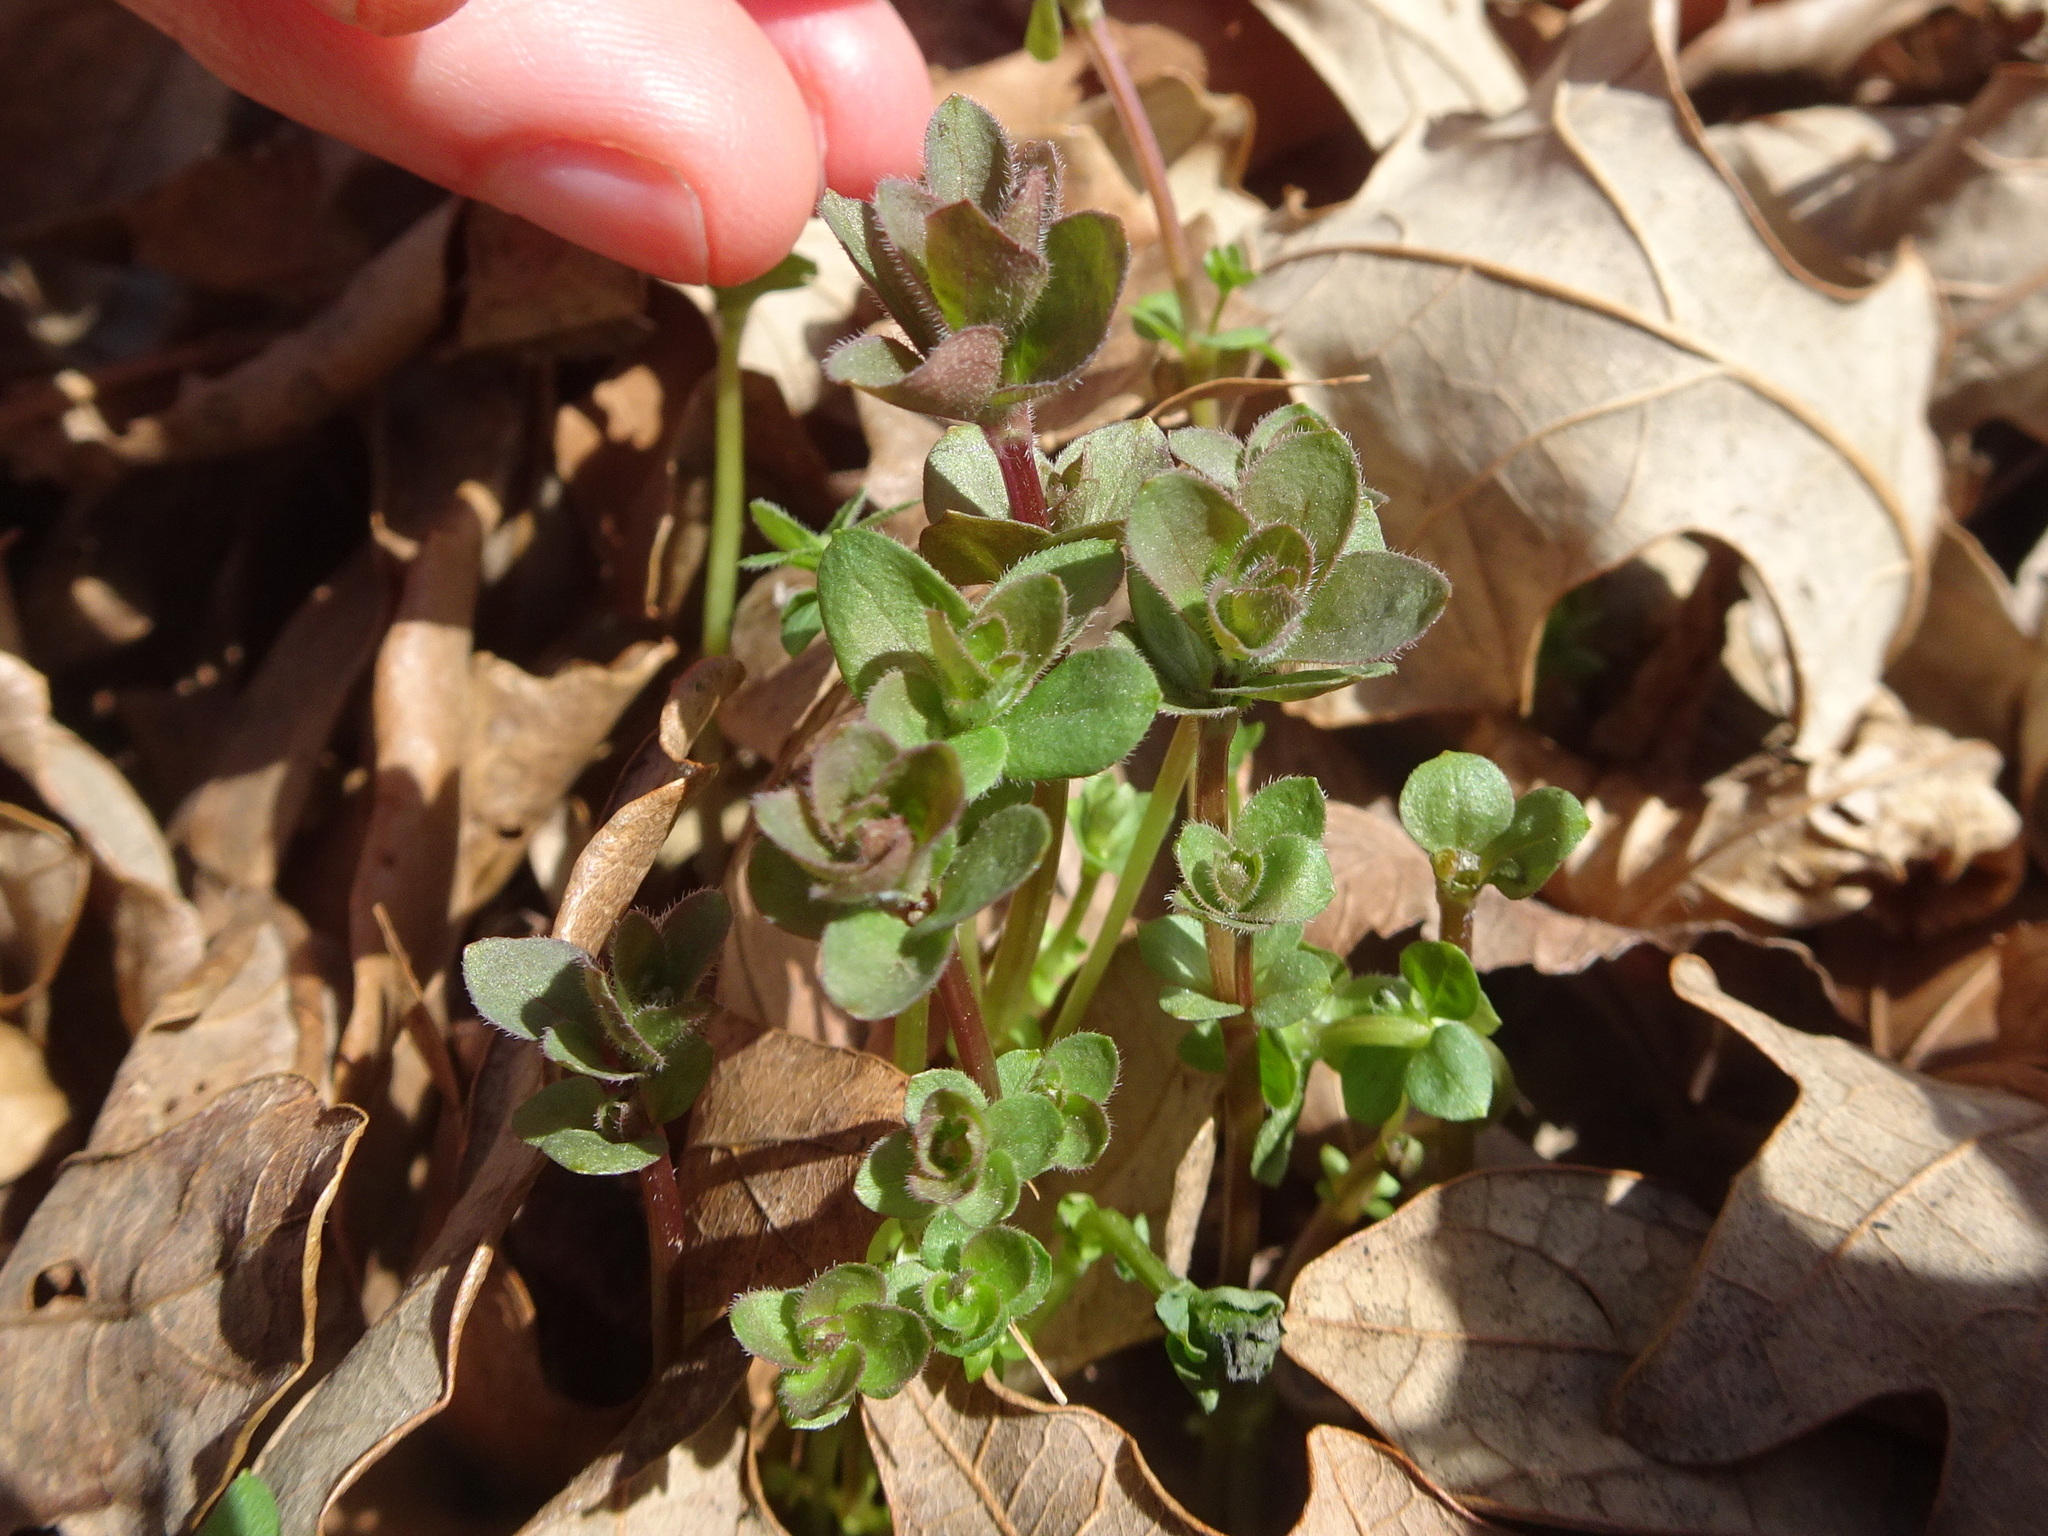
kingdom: Plantae
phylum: Tracheophyta
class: Magnoliopsida
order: Gentianales
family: Rubiaceae
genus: Galium
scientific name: Galium circaezans
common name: Forest bedstraw
